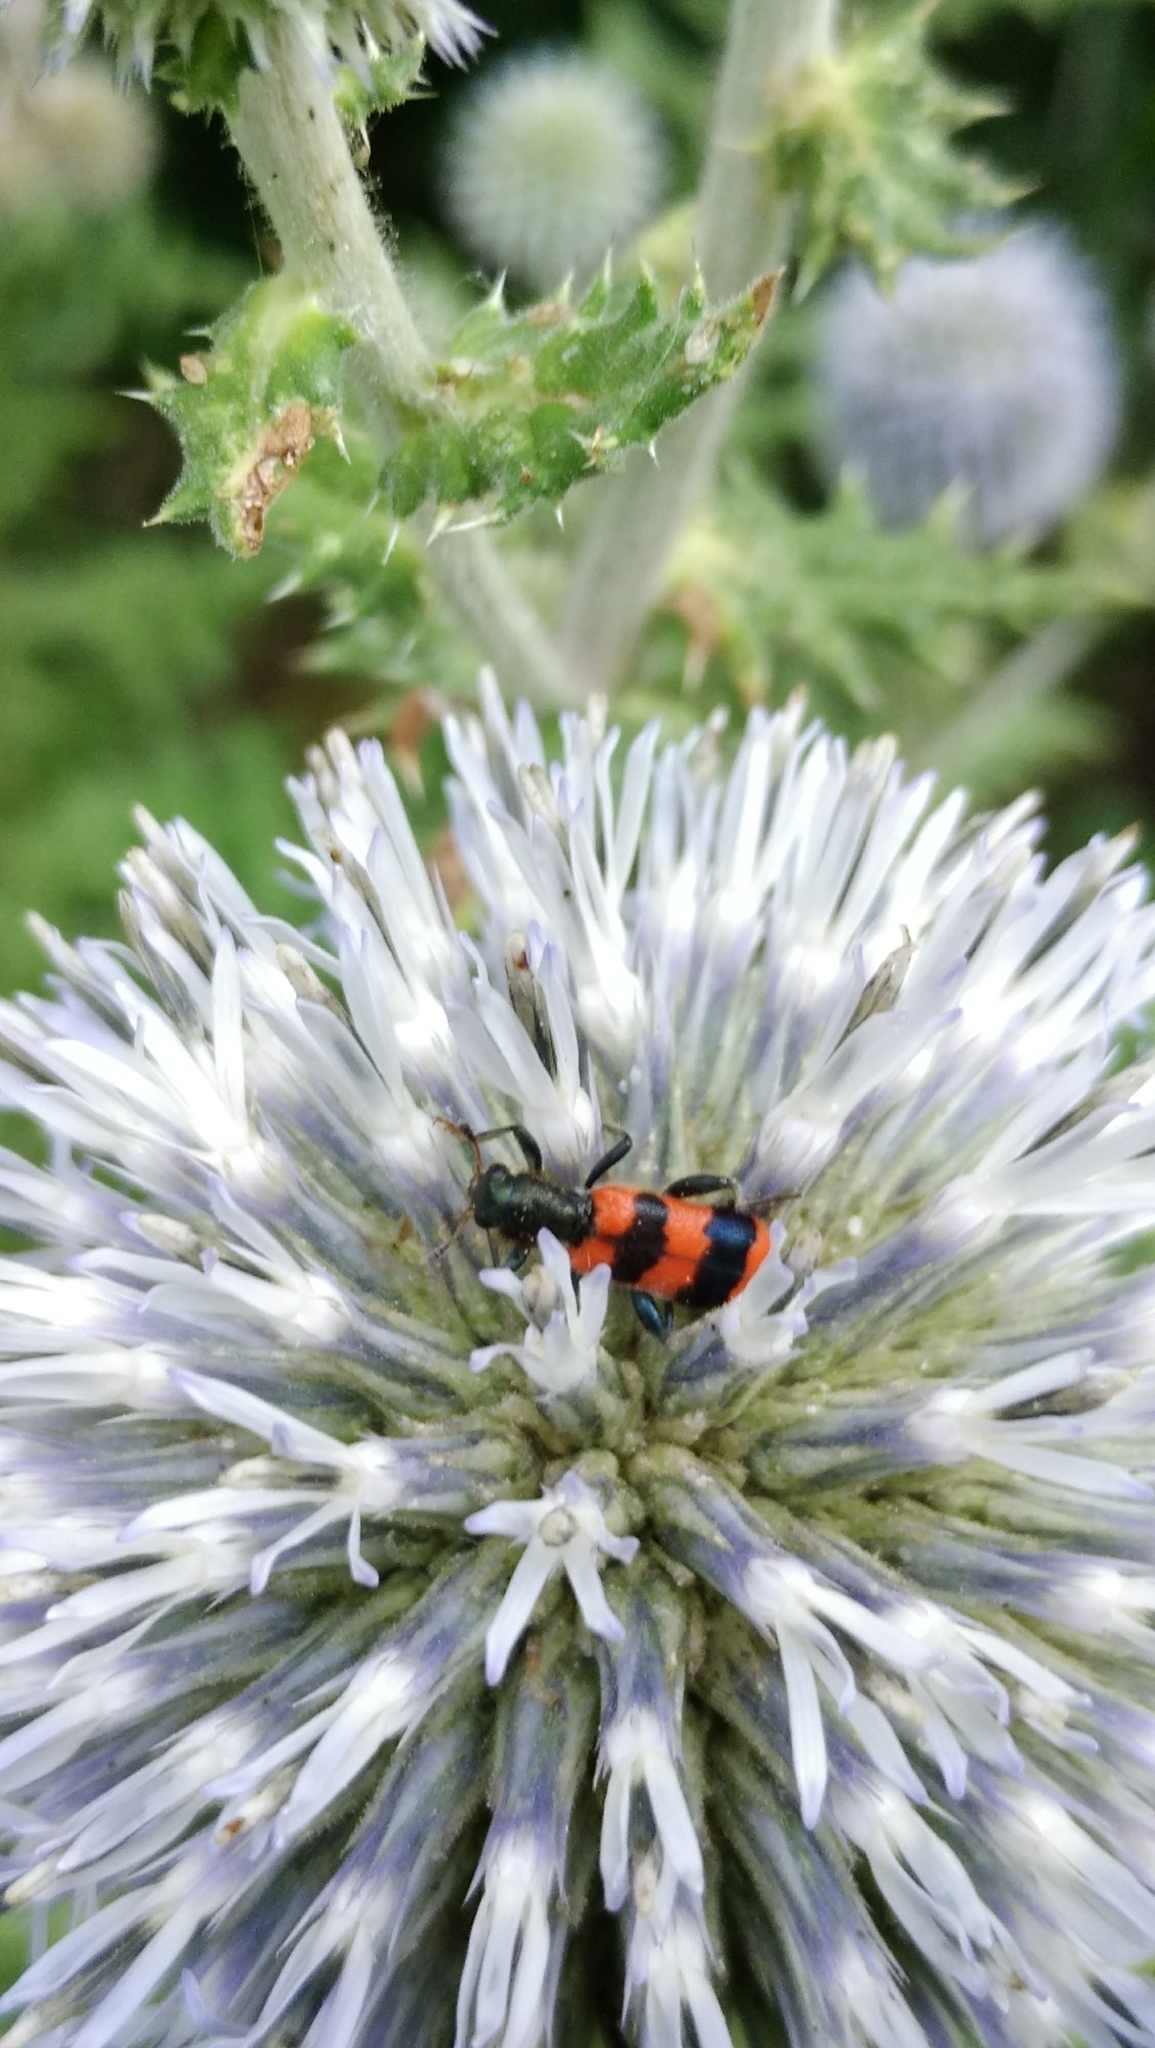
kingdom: Animalia
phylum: Arthropoda
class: Insecta
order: Coleoptera
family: Cleridae
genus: Trichodes
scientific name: Trichodes apiarius
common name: Bee-eating beetle
